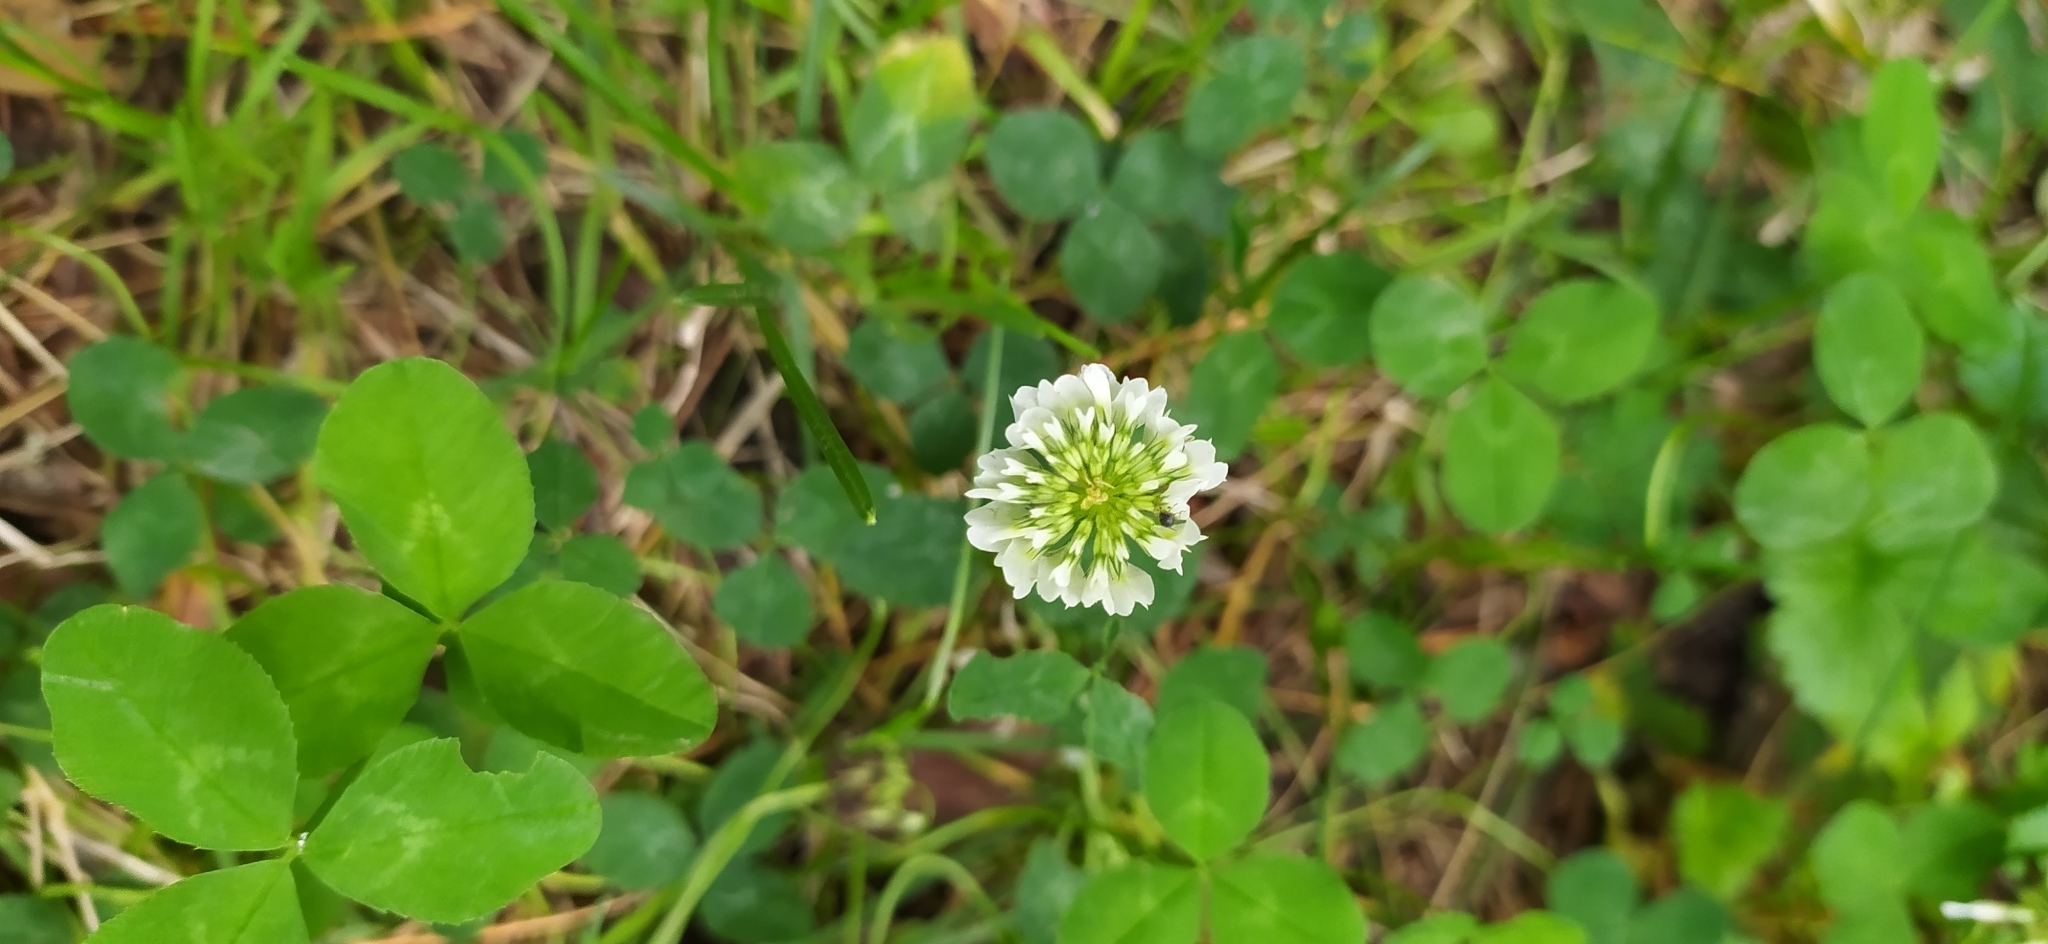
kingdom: Plantae
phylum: Tracheophyta
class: Magnoliopsida
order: Fabales
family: Fabaceae
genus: Trifolium
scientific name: Trifolium repens
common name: White clover
